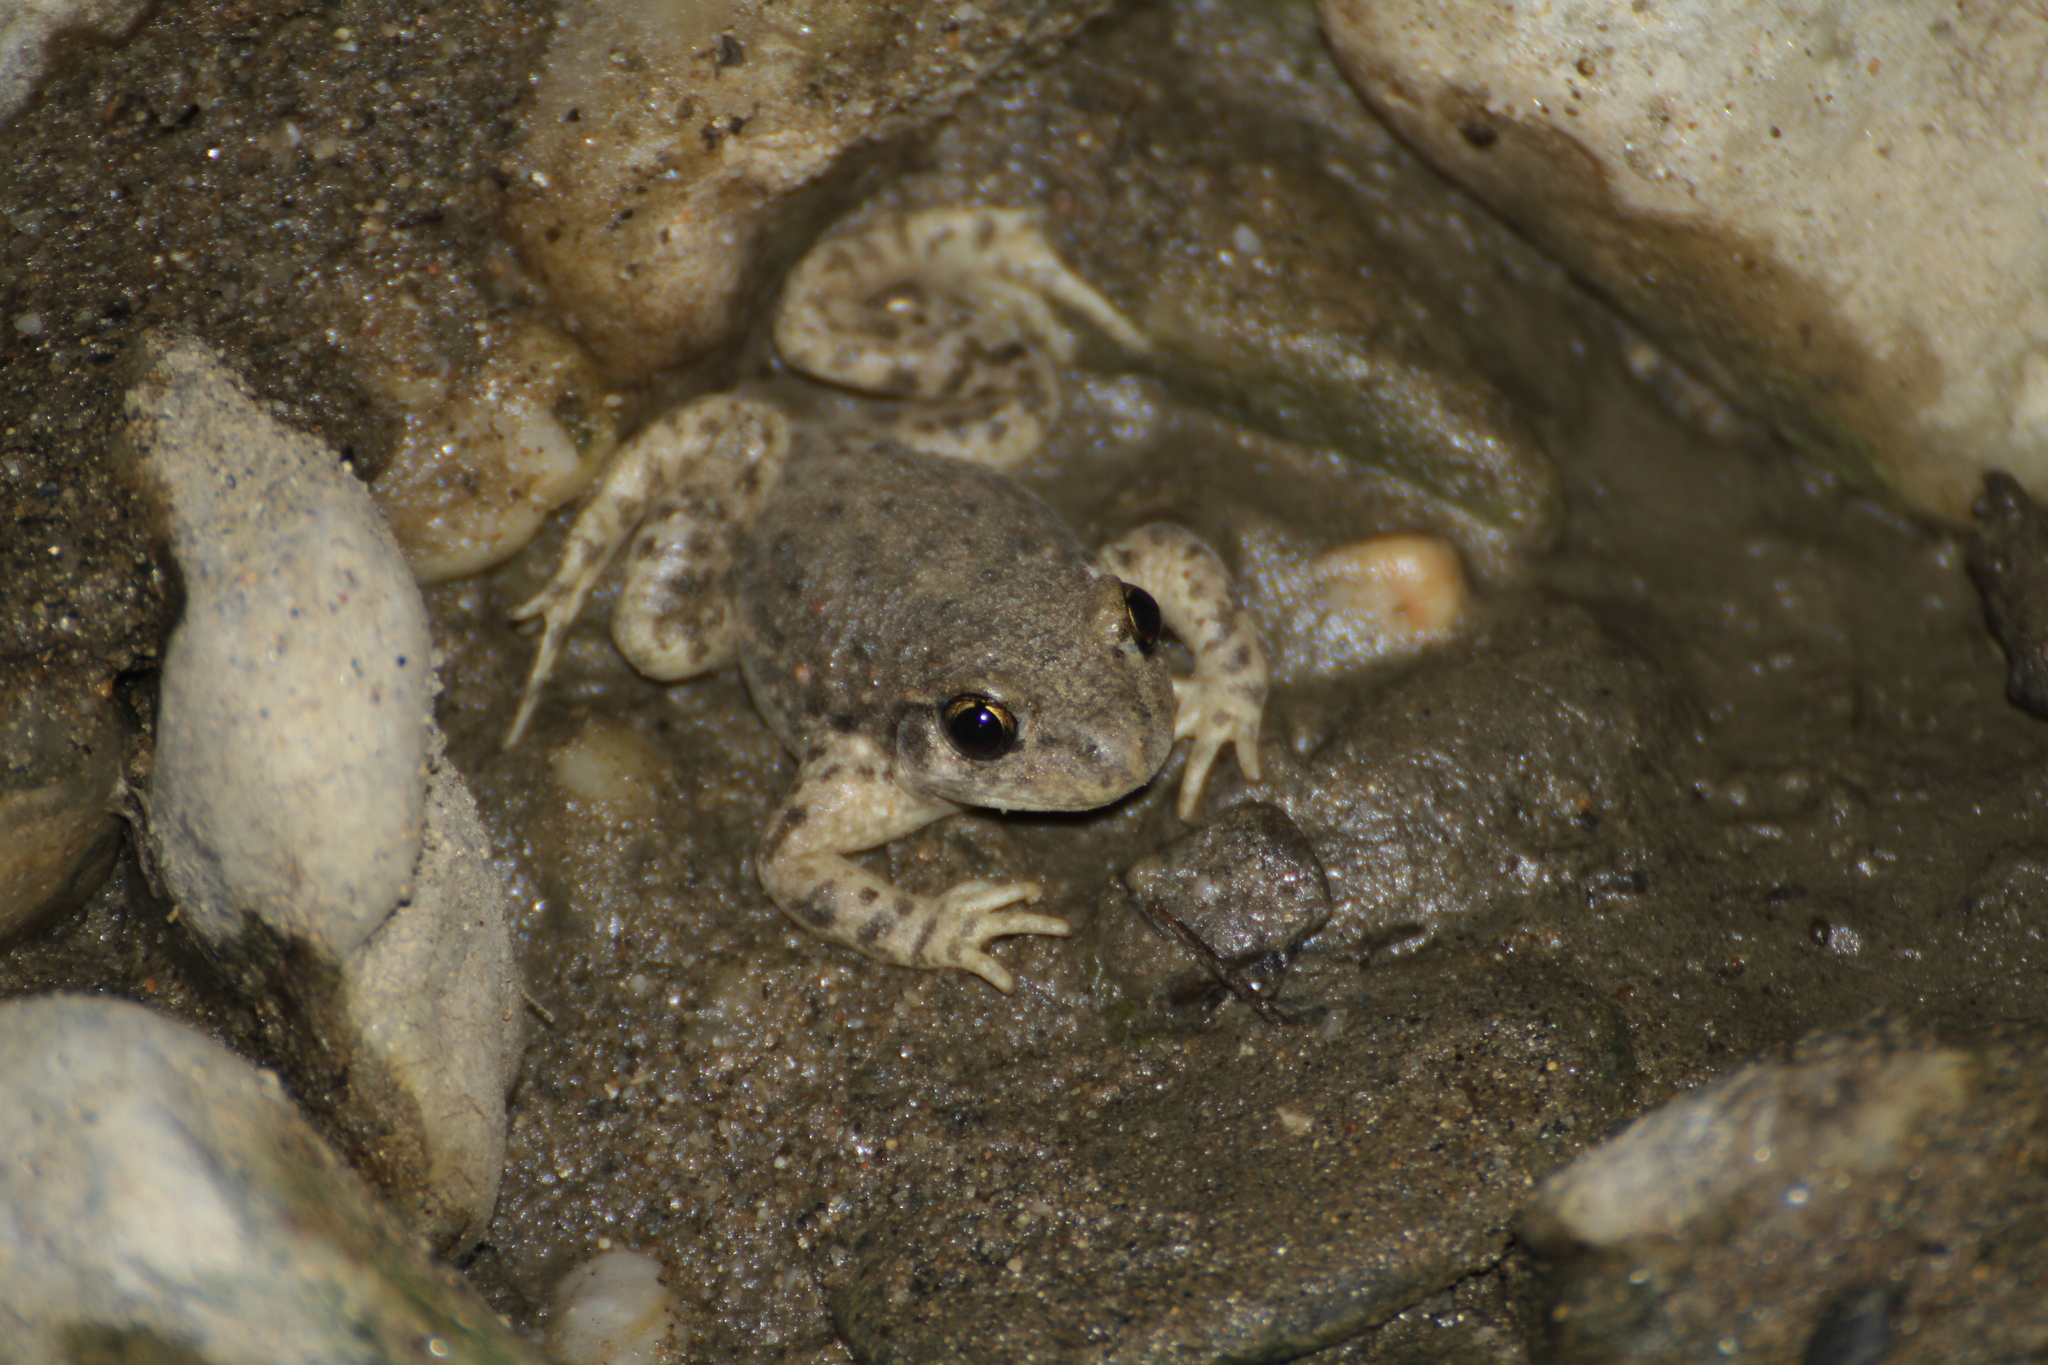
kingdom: Animalia
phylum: Chordata
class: Amphibia
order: Anura
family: Alytidae
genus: Alytes
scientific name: Alytes obstetricans
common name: Midwife toad
